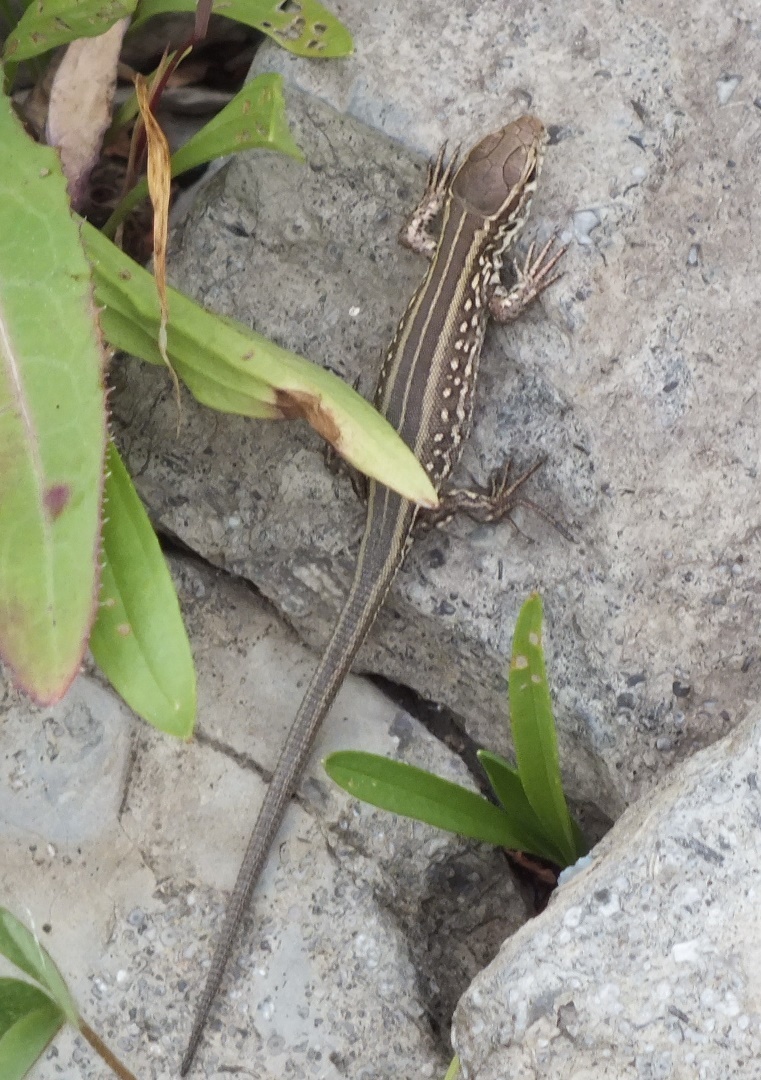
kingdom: Animalia
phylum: Chordata
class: Squamata
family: Lacertidae
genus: Lacerta
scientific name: Lacerta agilis
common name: Sand lizard
